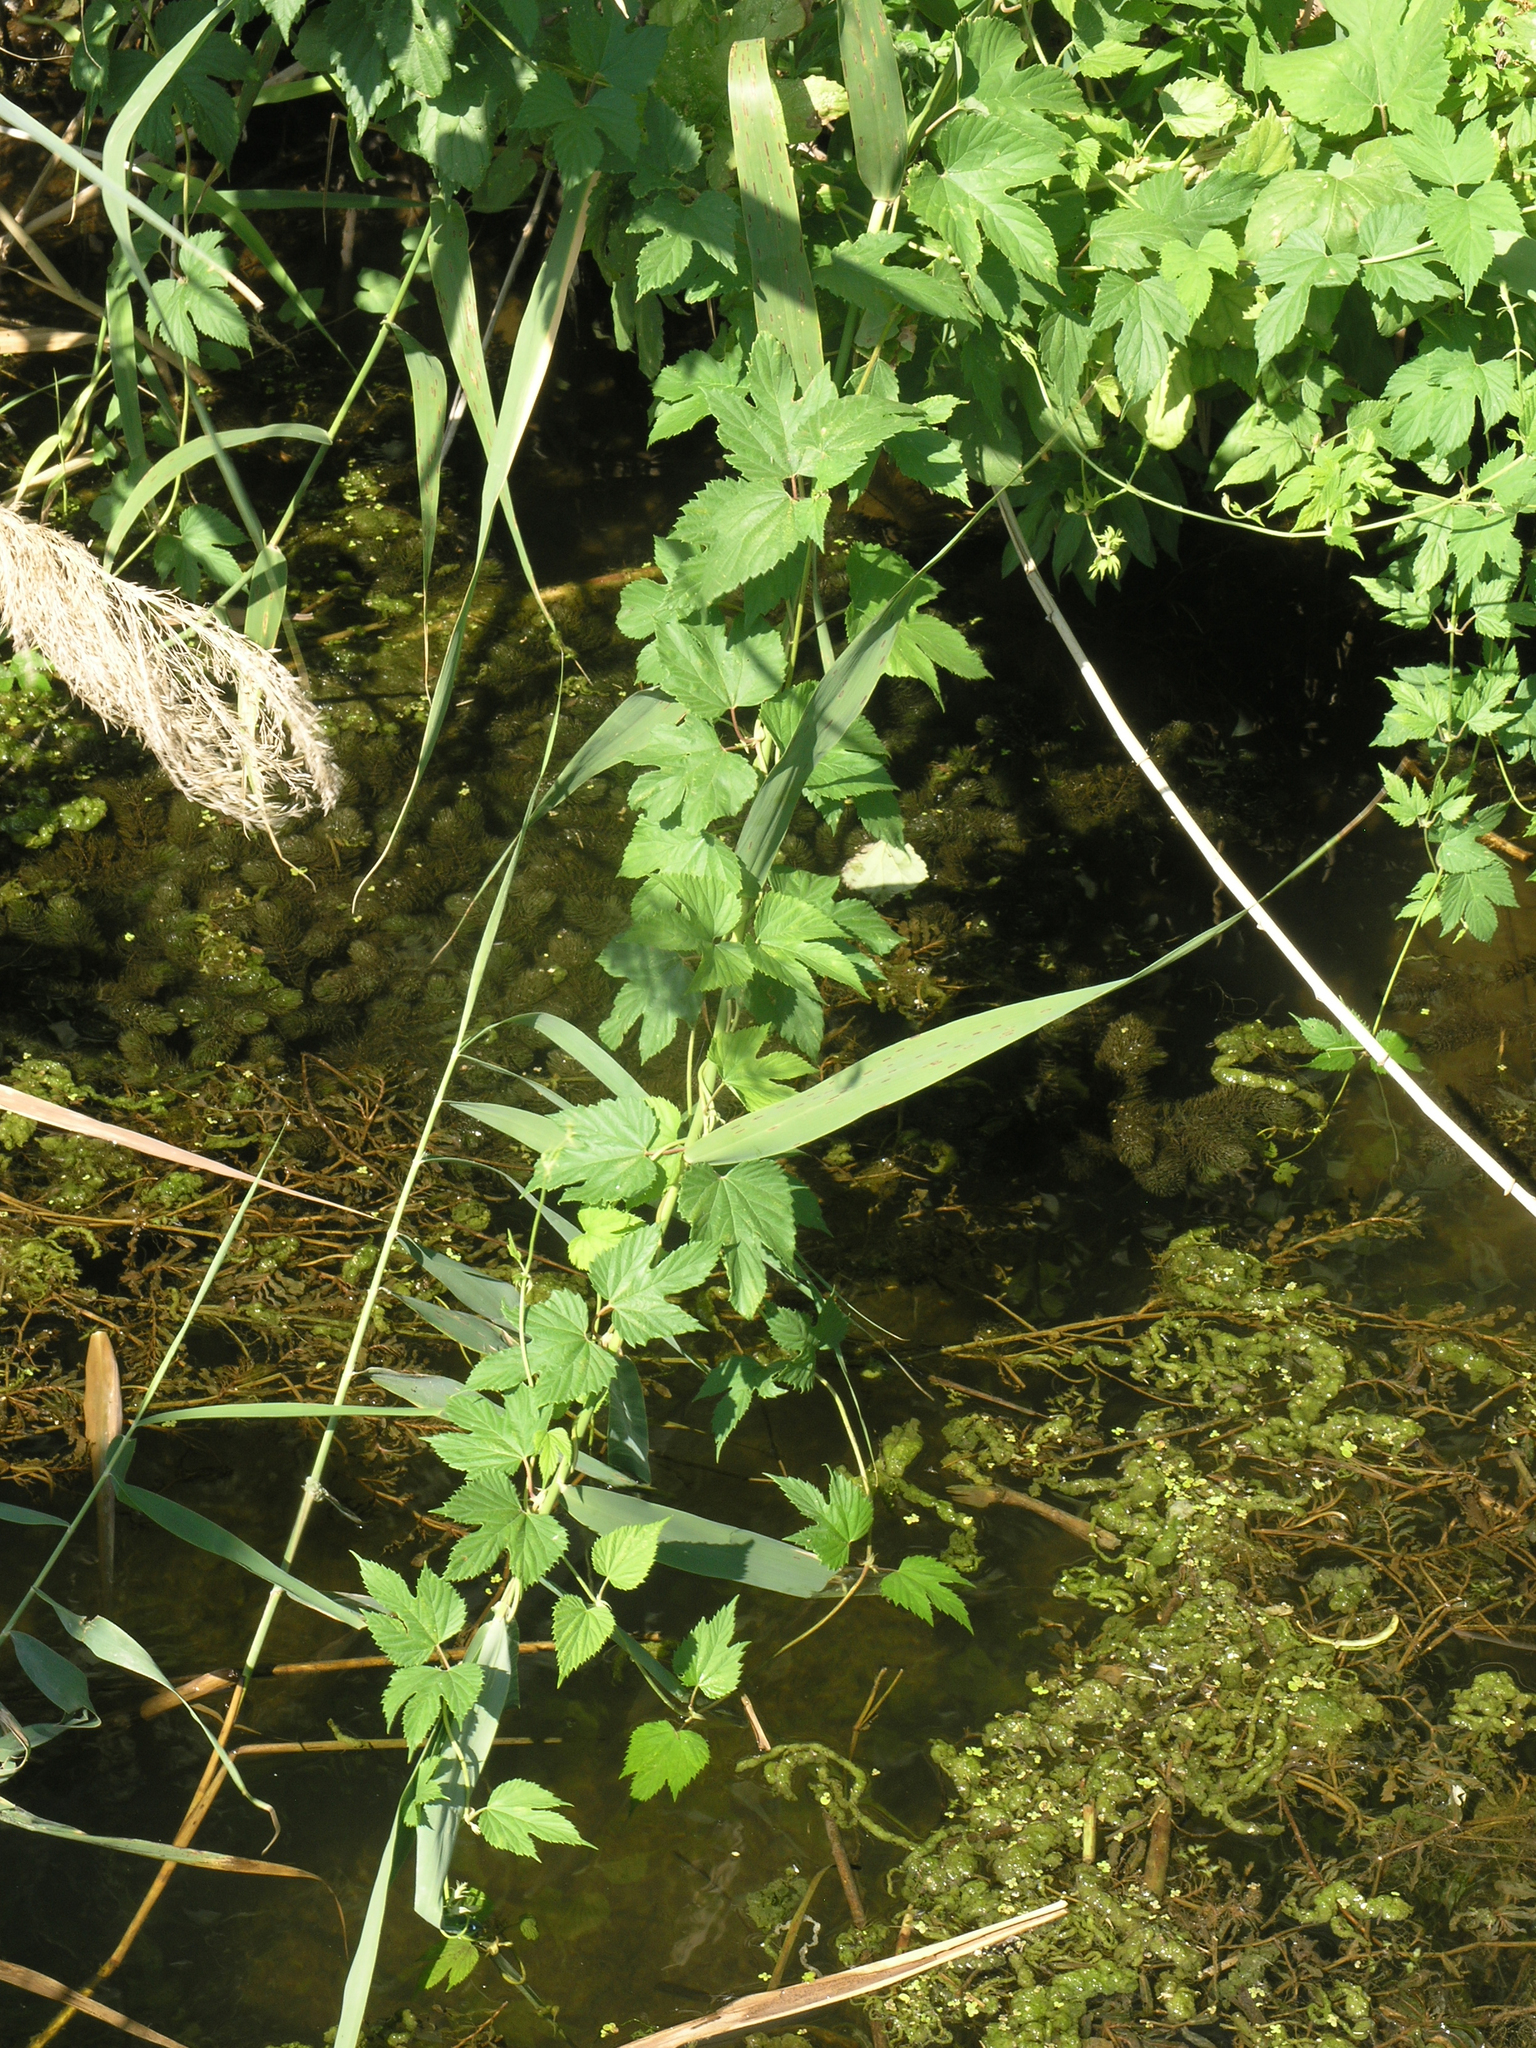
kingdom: Plantae
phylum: Tracheophyta
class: Magnoliopsida
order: Rosales
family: Cannabaceae
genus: Humulus
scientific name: Humulus lupulus
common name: Hop
